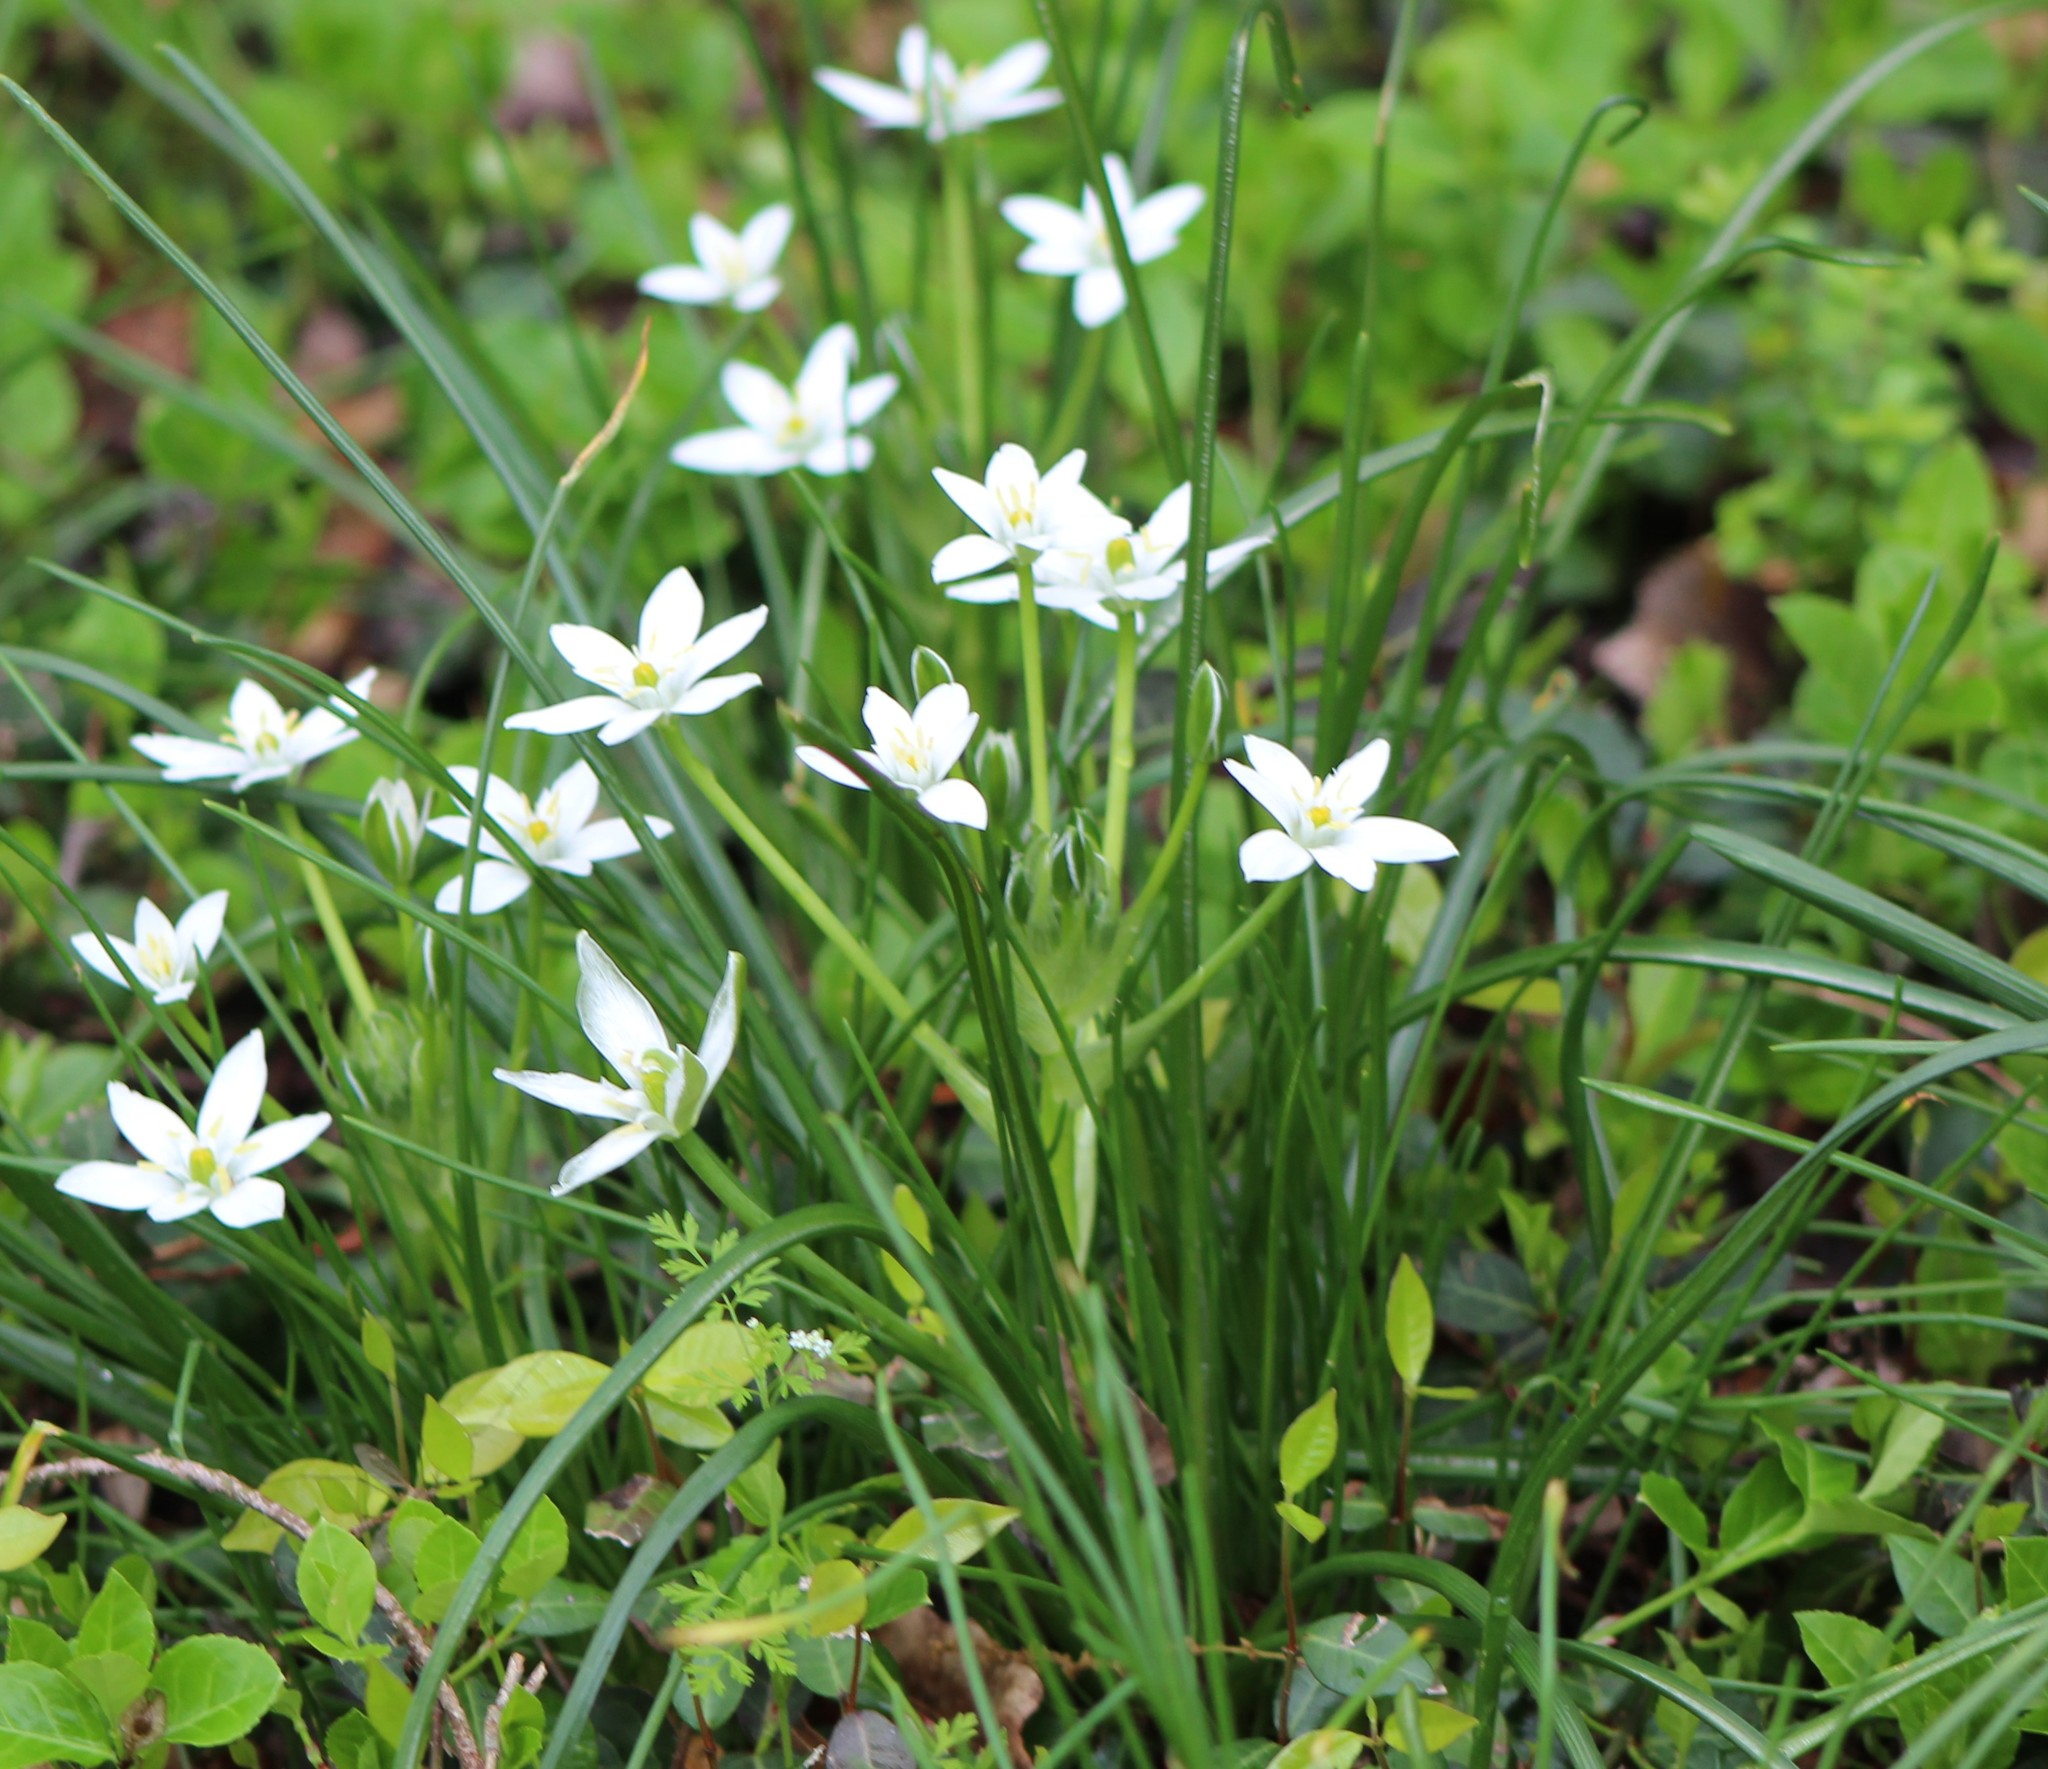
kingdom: Plantae
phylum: Tracheophyta
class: Liliopsida
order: Asparagales
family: Asparagaceae
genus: Ornithogalum
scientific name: Ornithogalum umbellatum
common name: Garden star-of-bethlehem
